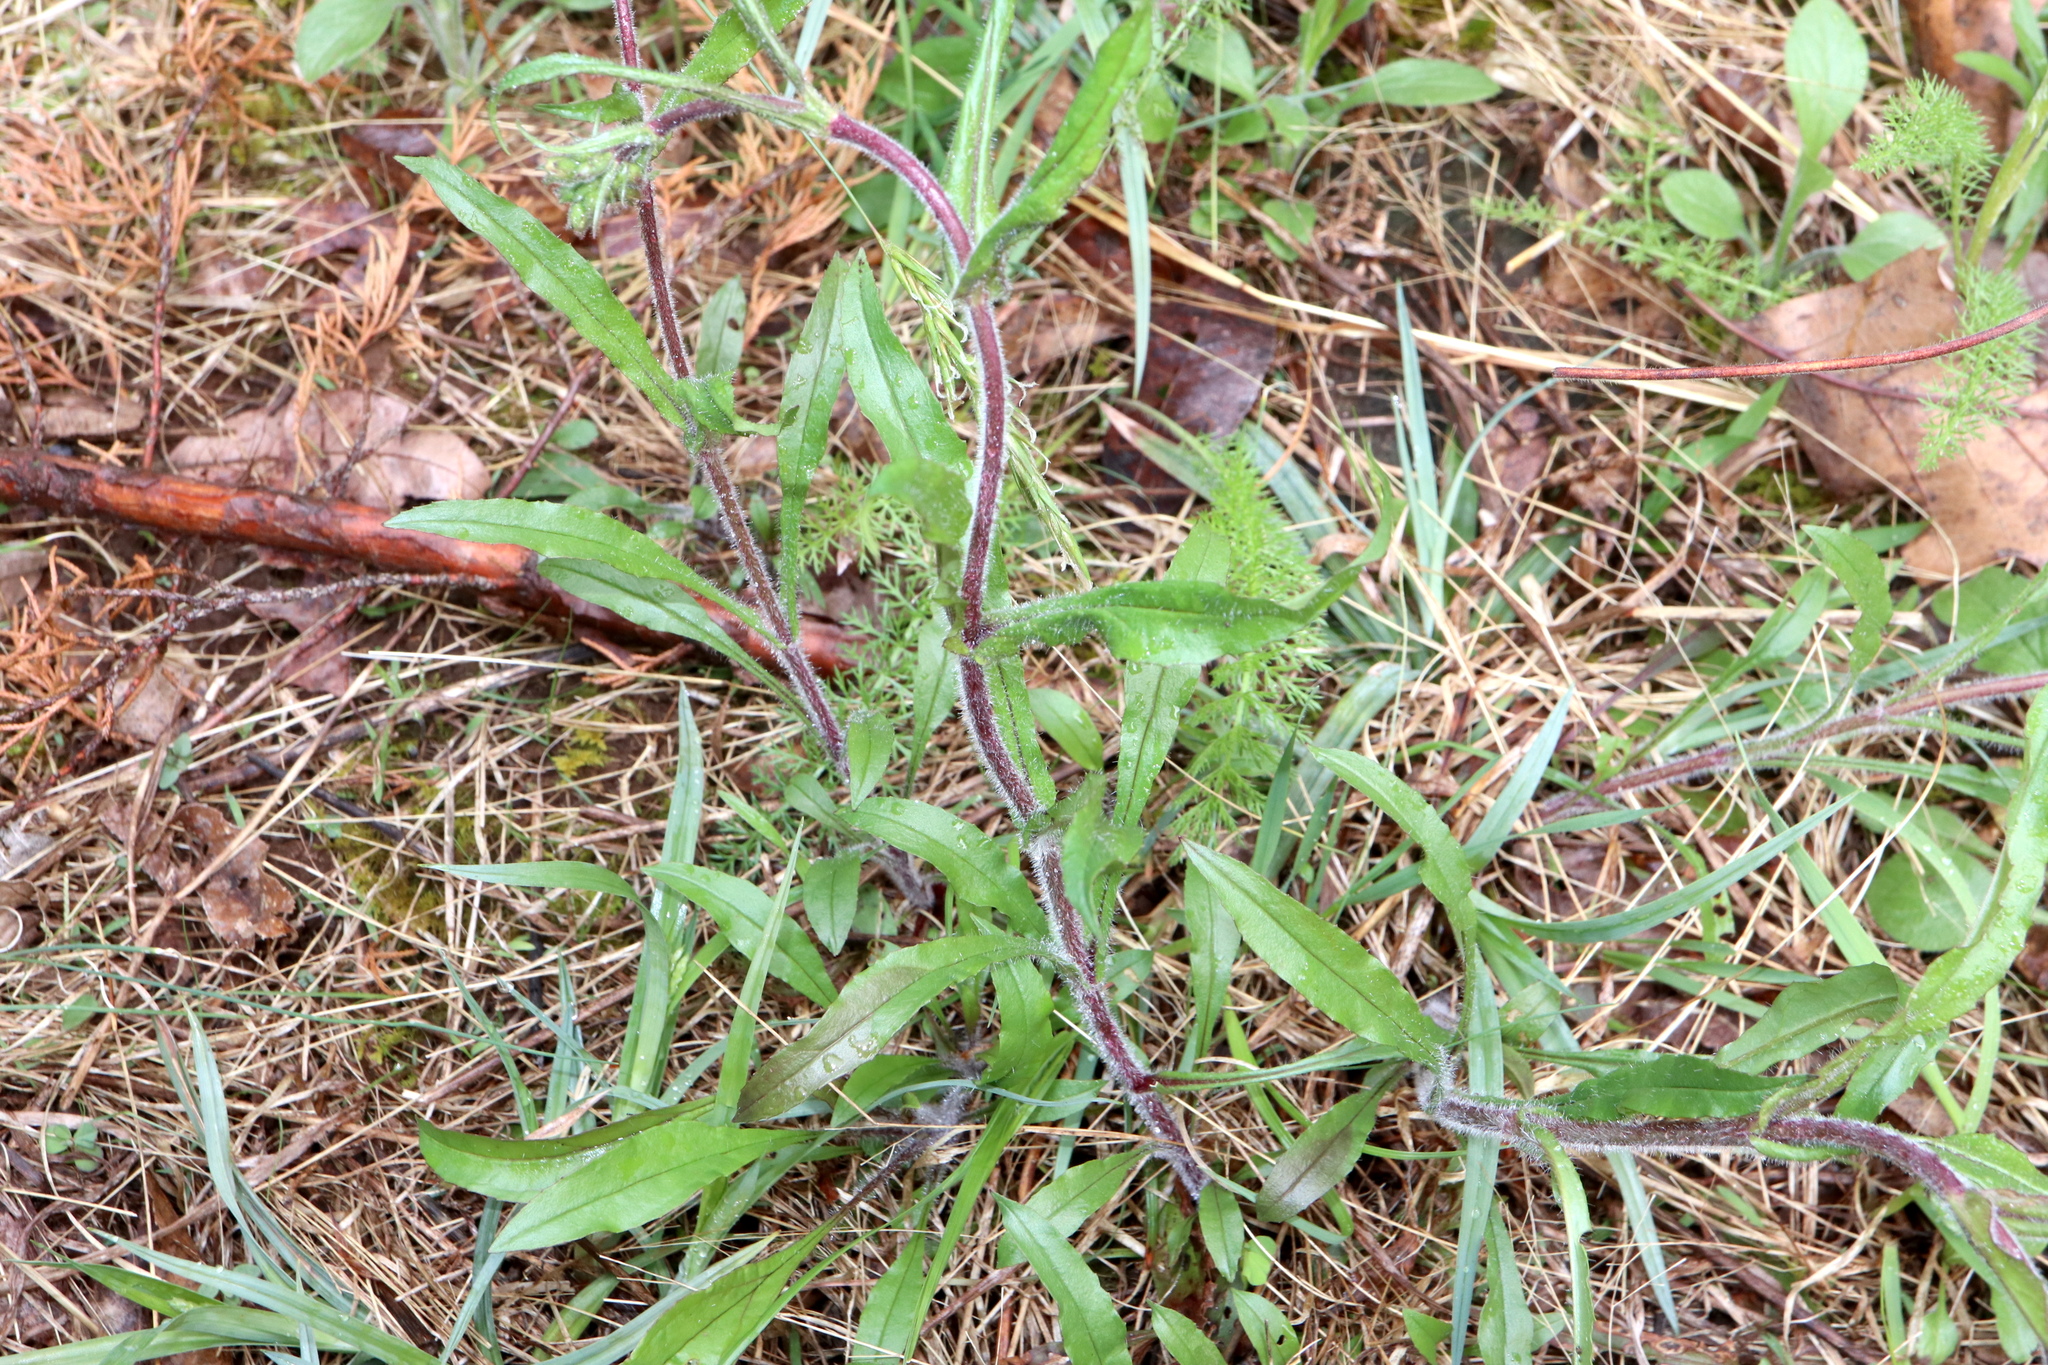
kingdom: Plantae
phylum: Tracheophyta
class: Magnoliopsida
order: Lamiales
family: Plantaginaceae
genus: Penstemon
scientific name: Penstemon hirsutus
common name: Hairy beardtongue
